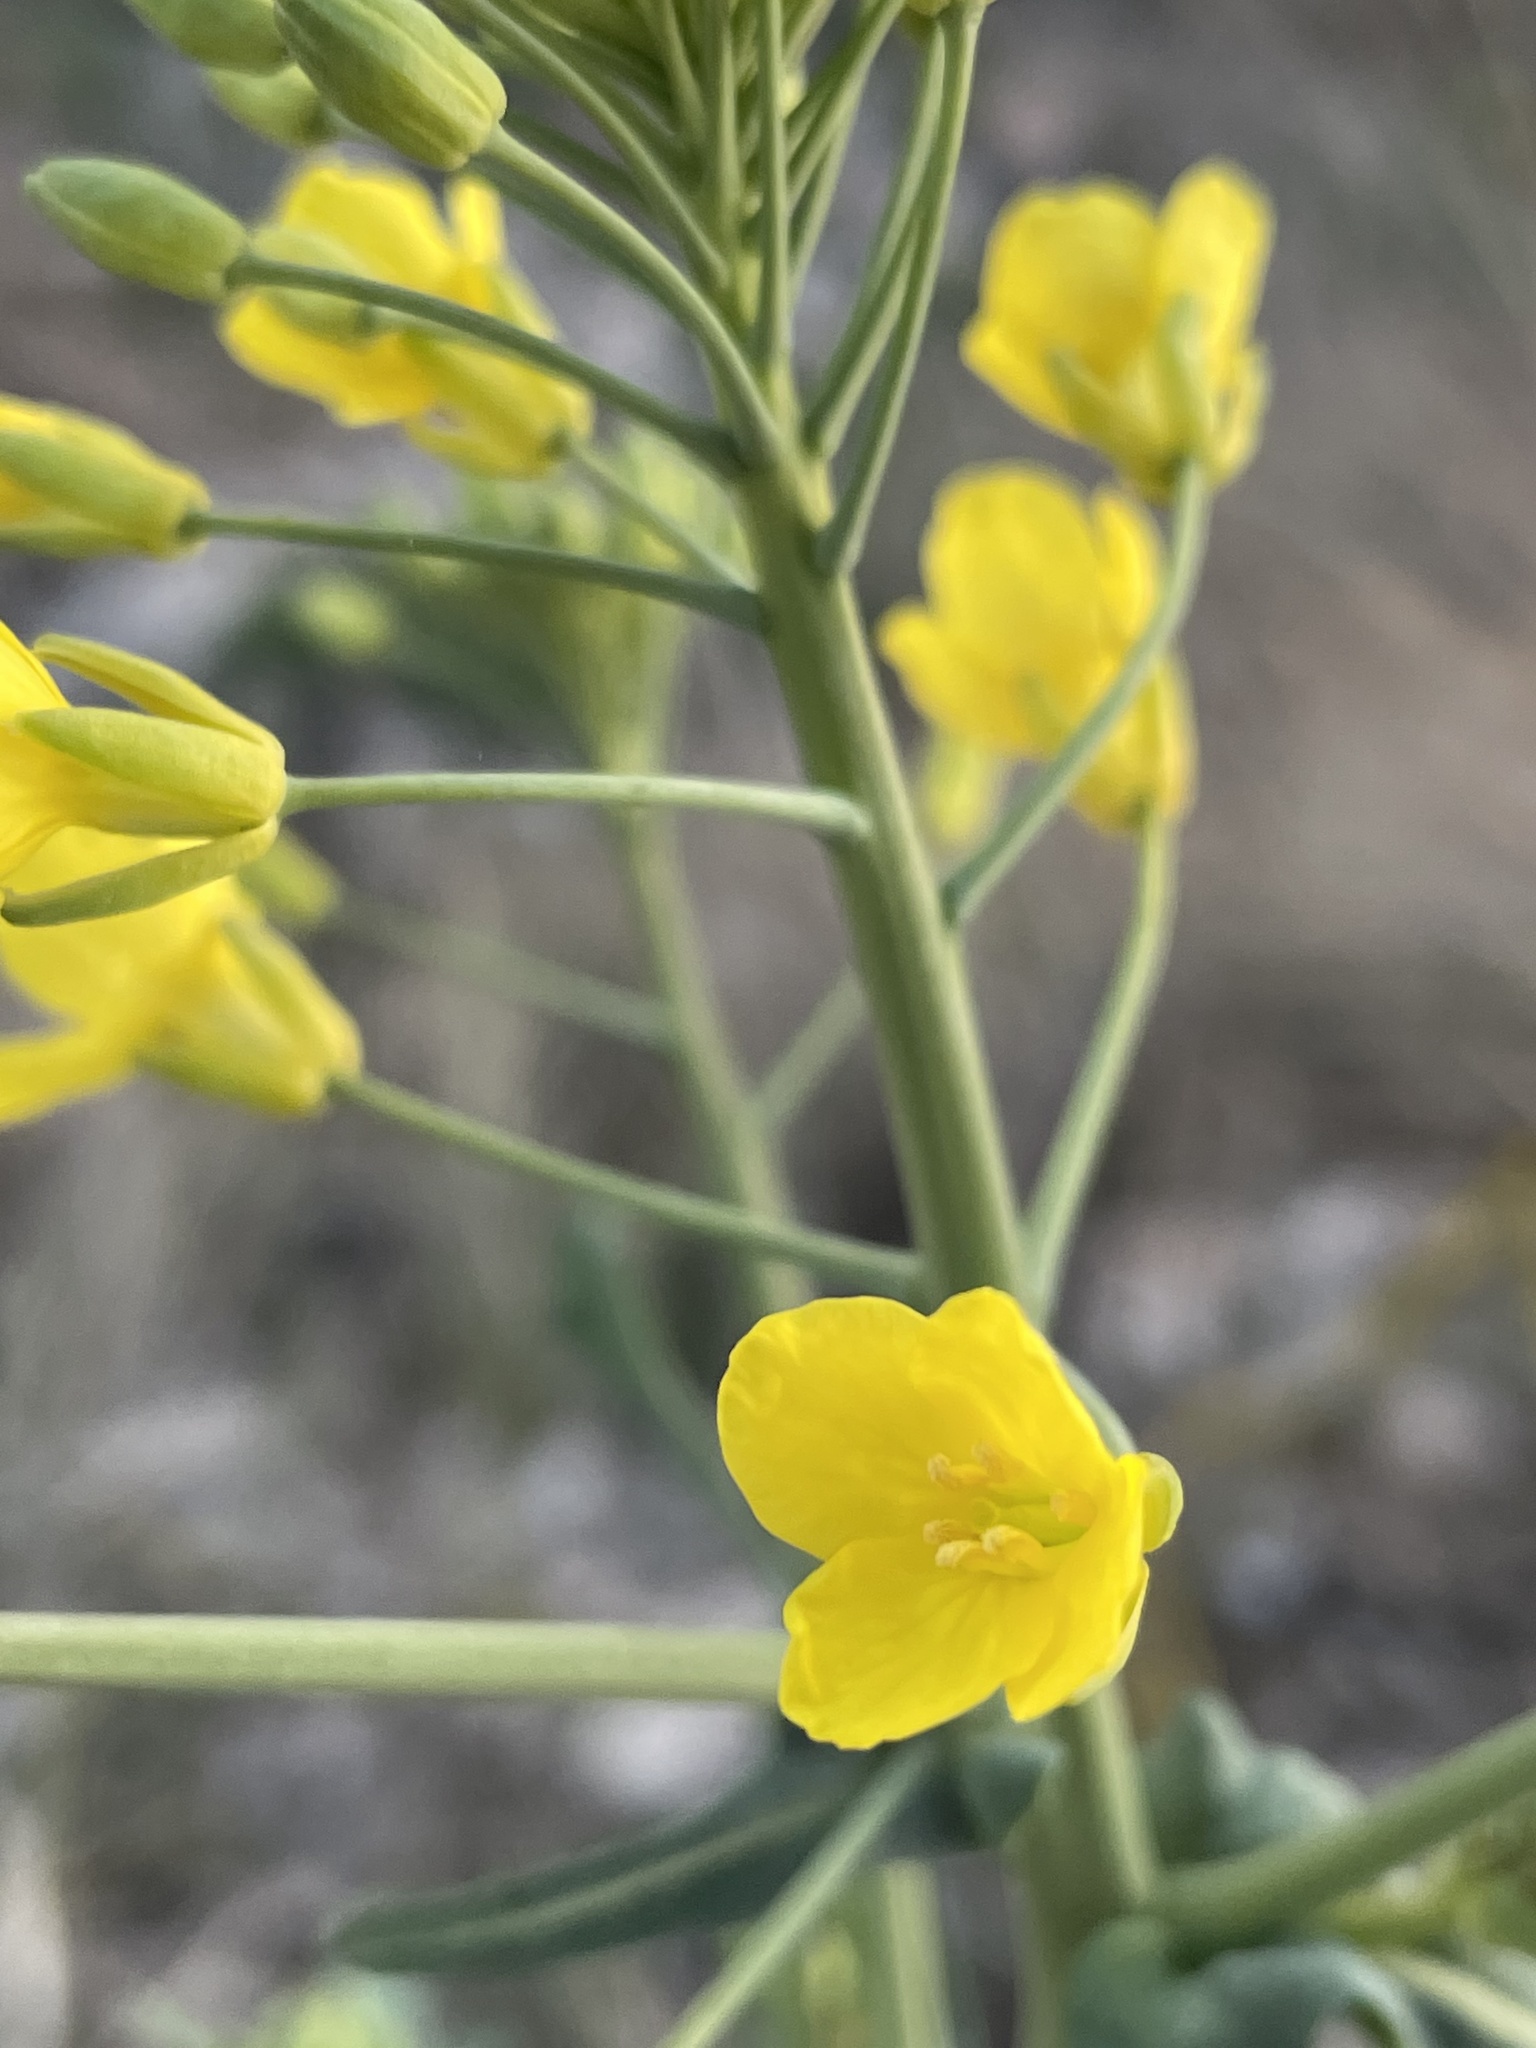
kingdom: Plantae
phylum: Tracheophyta
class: Magnoliopsida
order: Brassicales
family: Brassicaceae
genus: Brassica
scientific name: Brassica napus
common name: Rape
